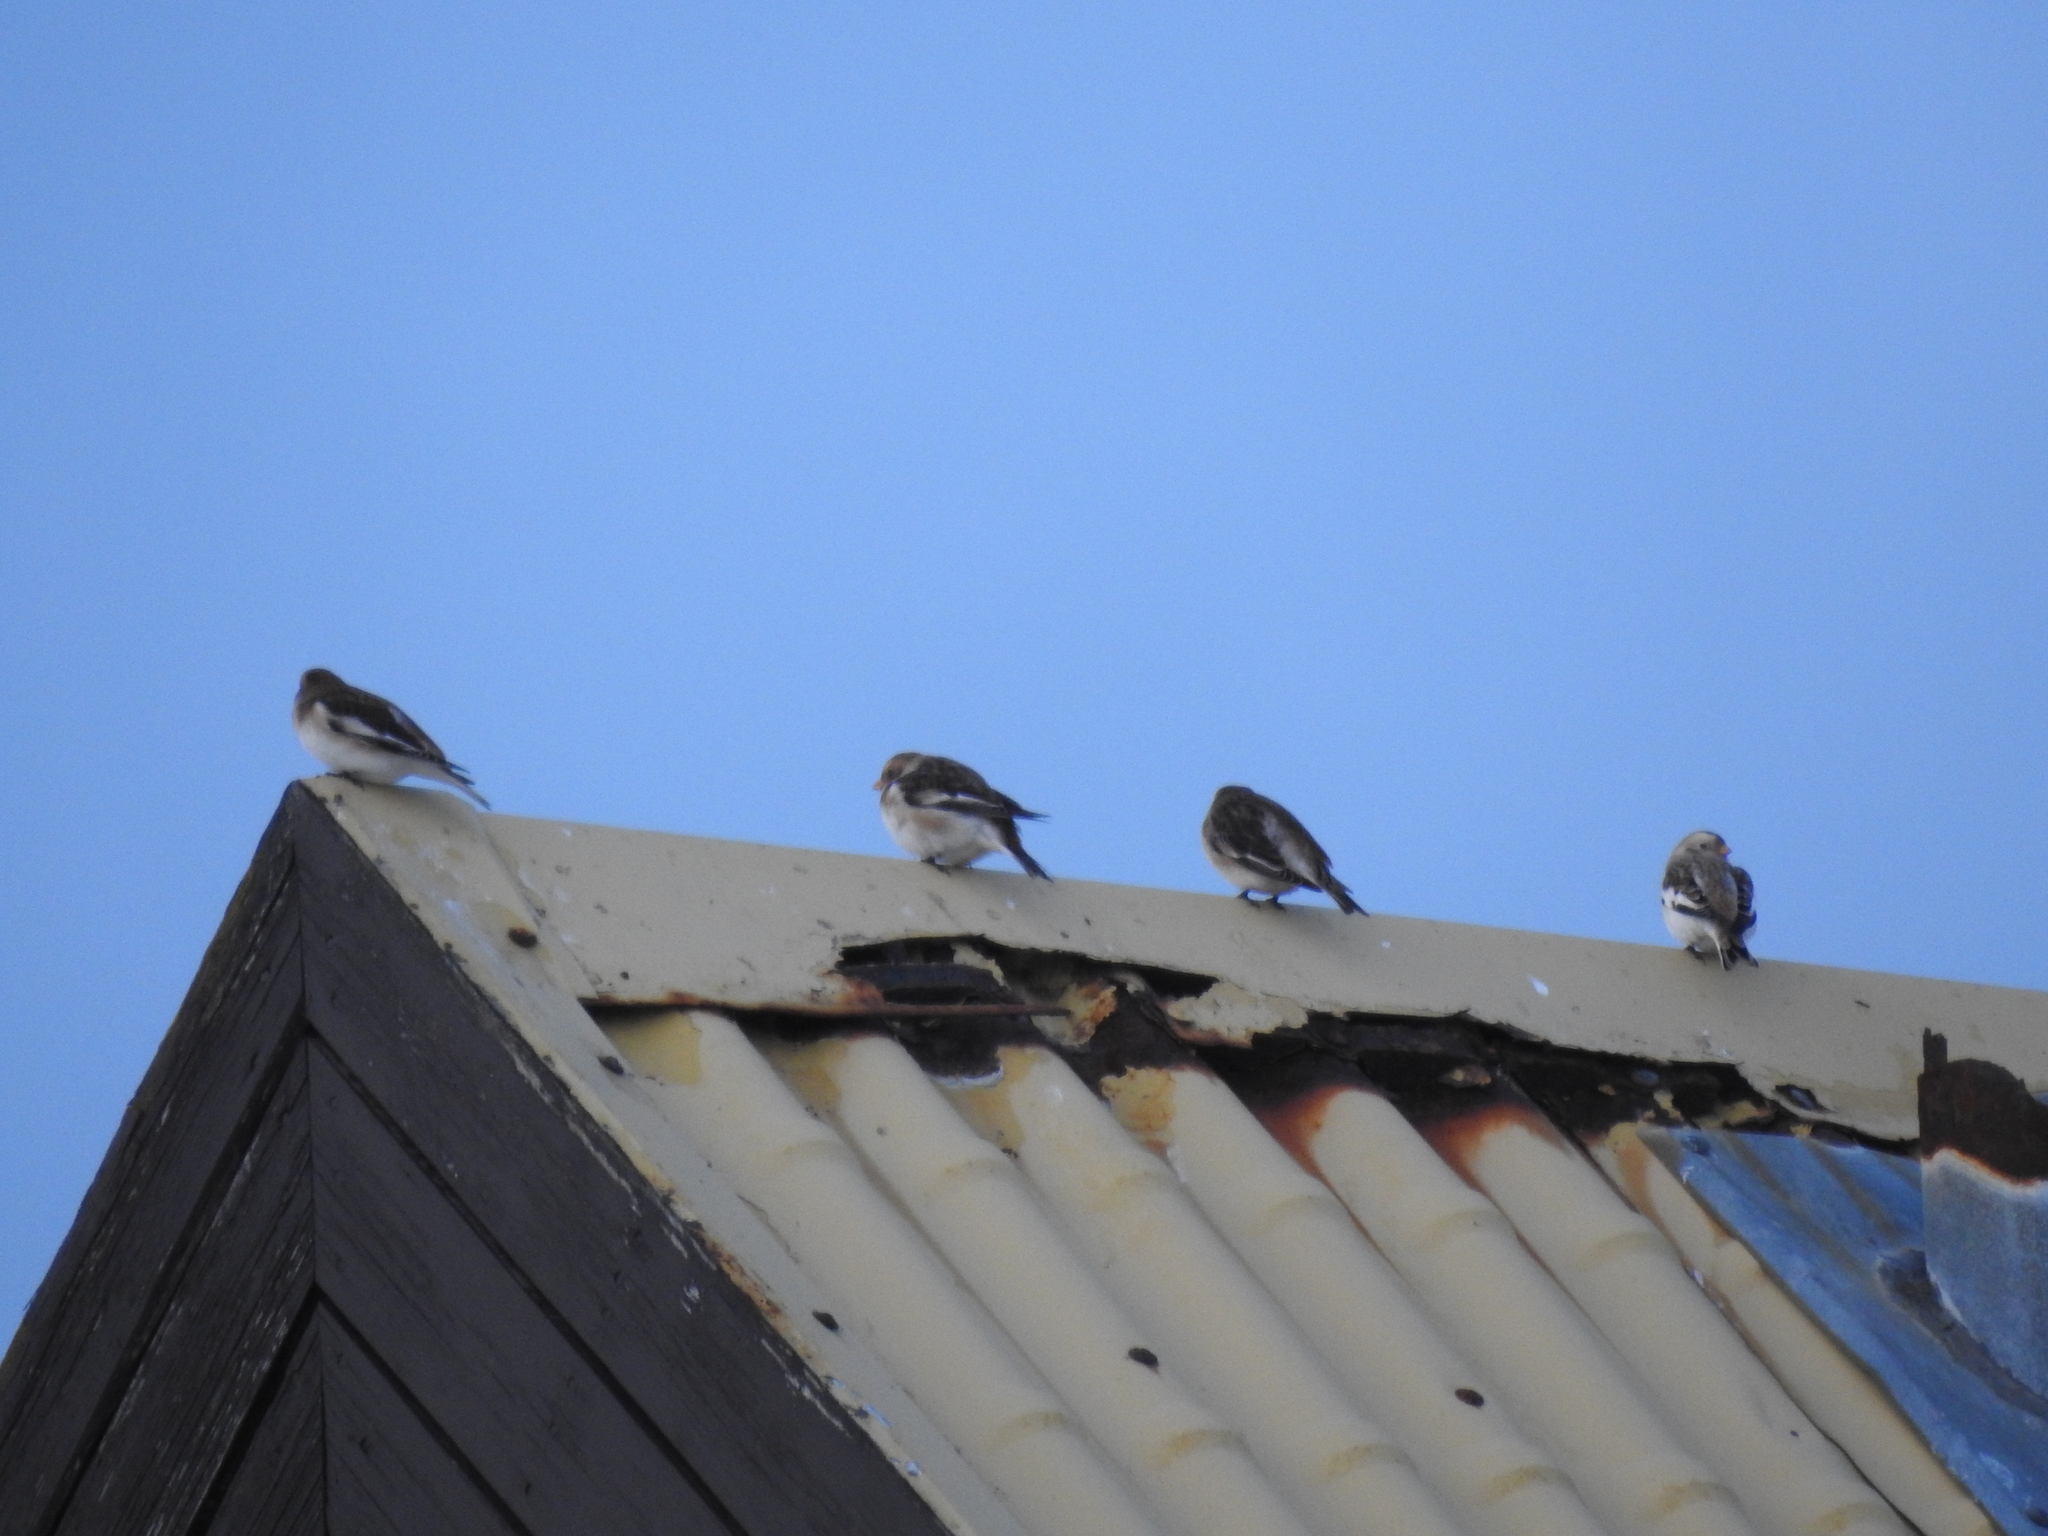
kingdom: Animalia
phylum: Chordata
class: Aves
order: Passeriformes
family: Calcariidae
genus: Plectrophenax
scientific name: Plectrophenax nivalis
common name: Snow bunting
